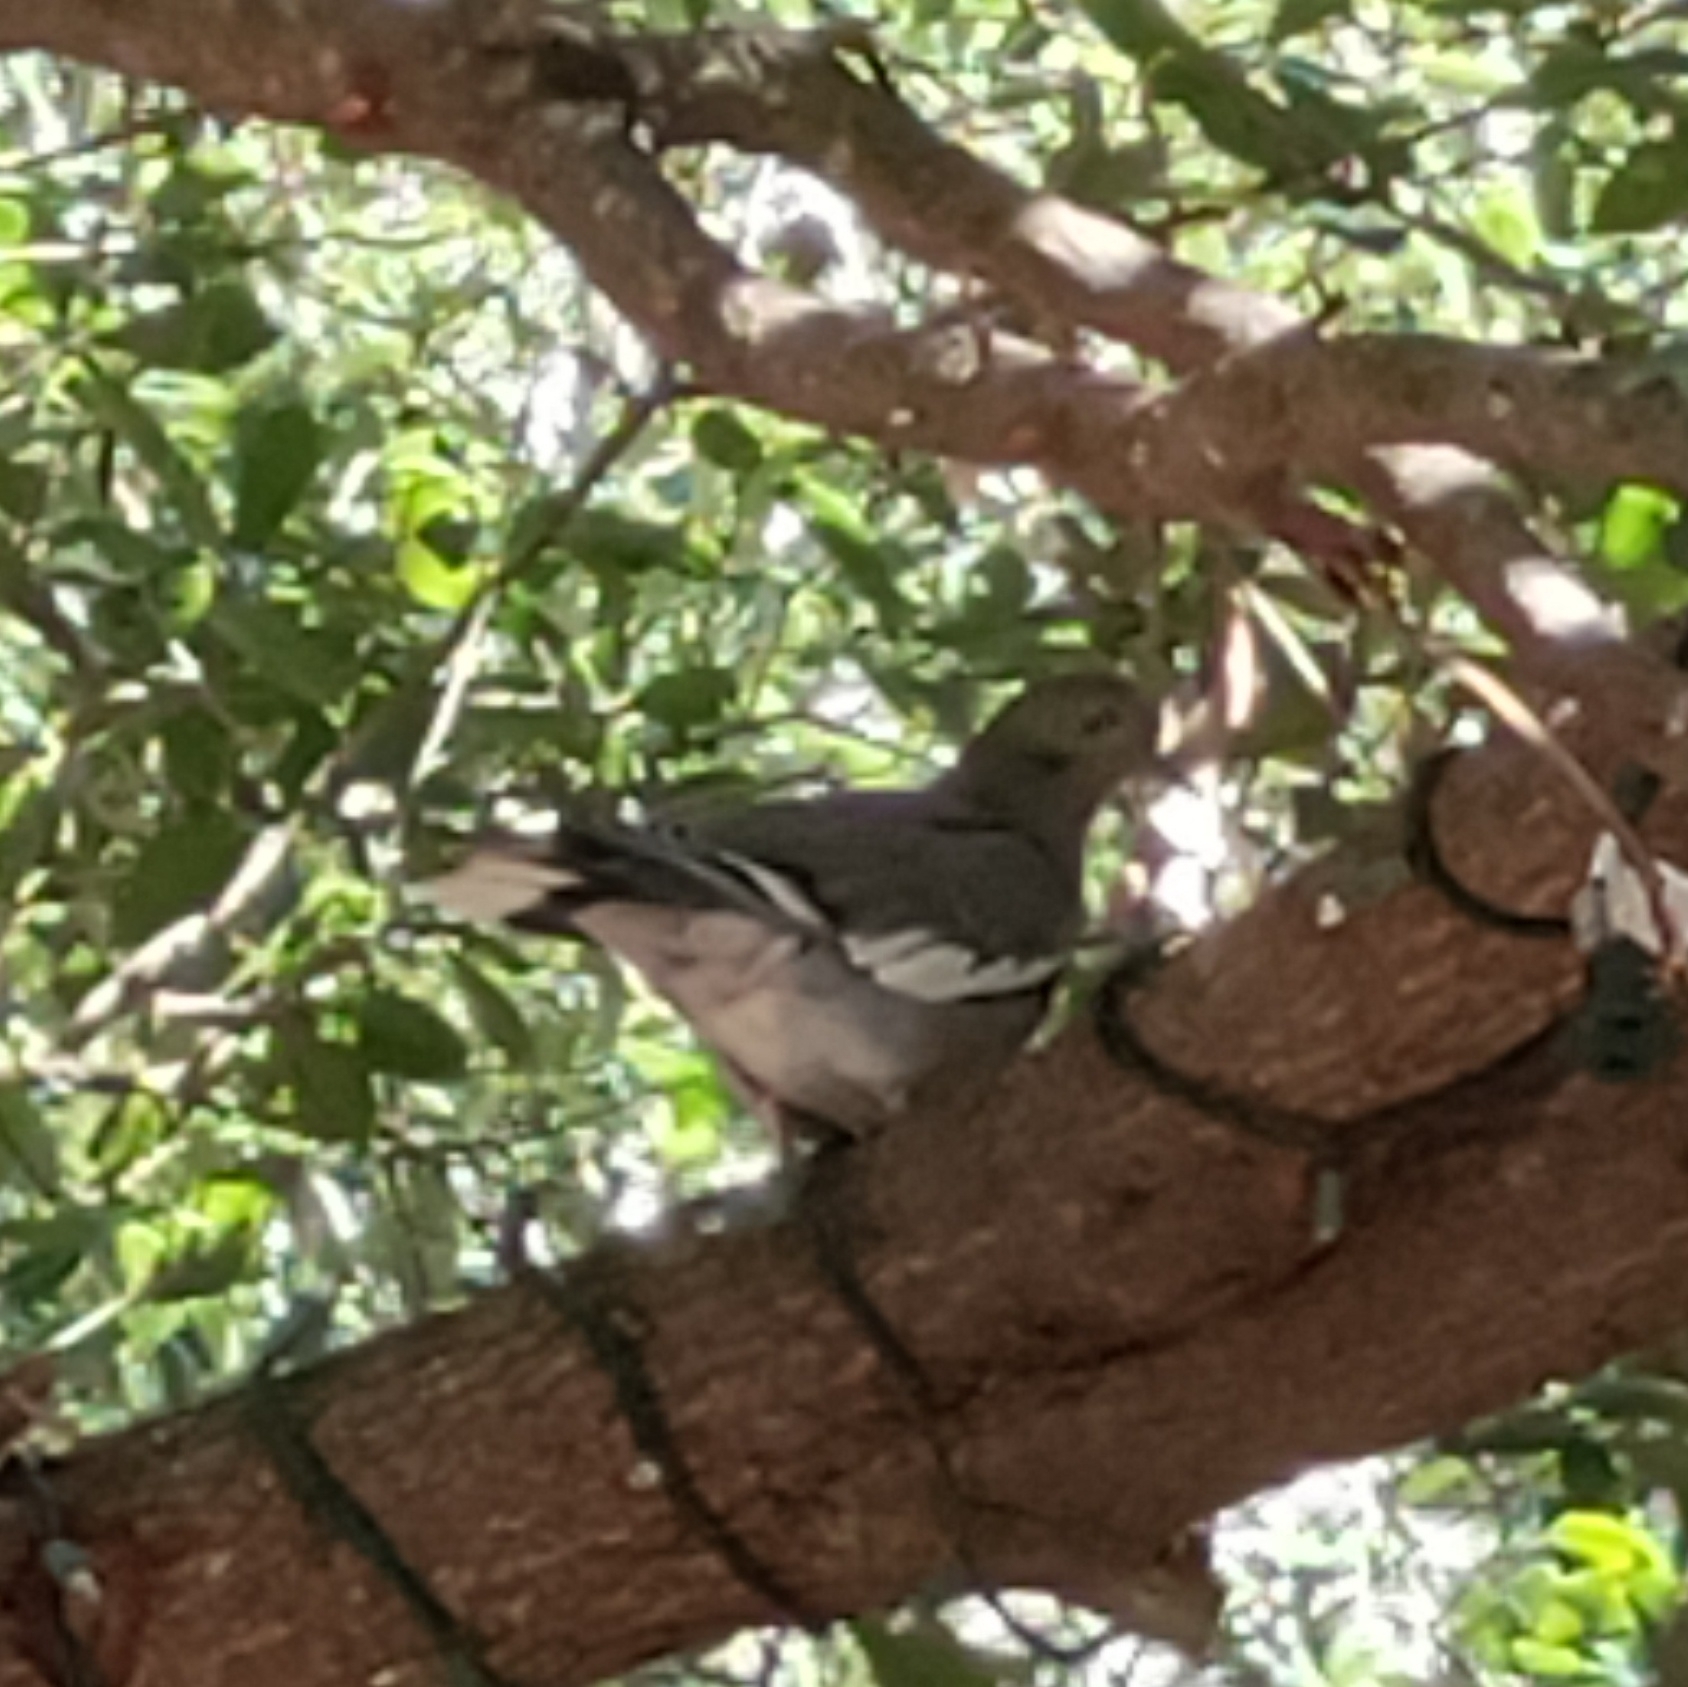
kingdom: Animalia
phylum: Chordata
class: Aves
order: Columbiformes
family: Columbidae
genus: Zenaida
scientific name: Zenaida asiatica
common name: White-winged dove
